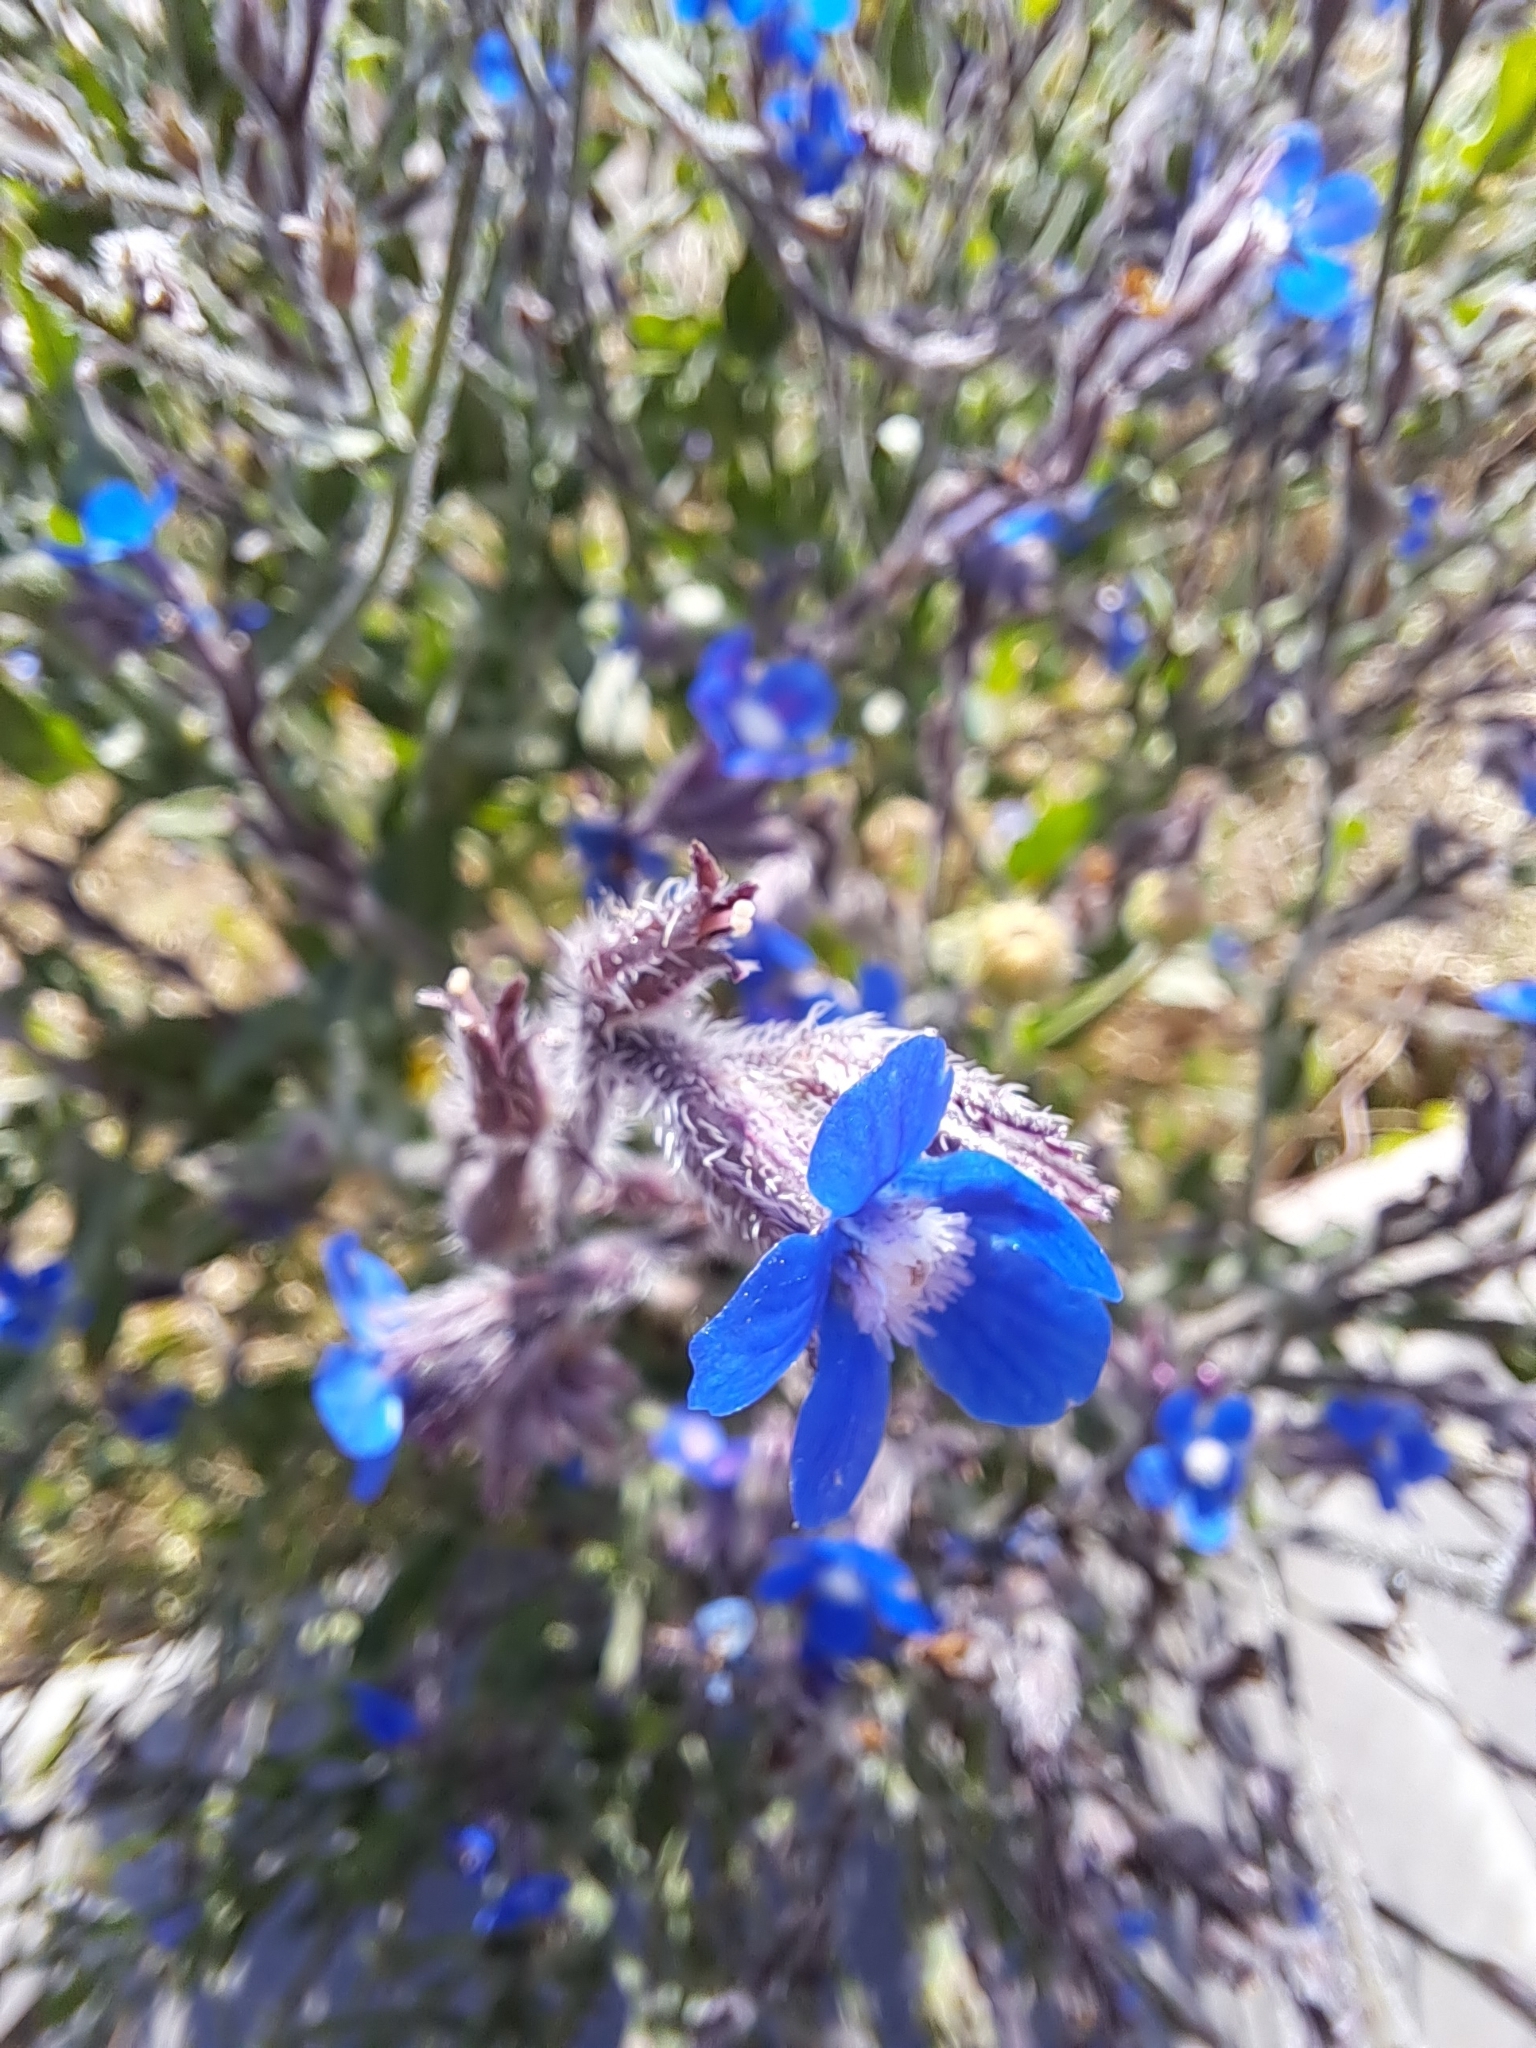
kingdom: Plantae
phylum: Tracheophyta
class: Magnoliopsida
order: Boraginales
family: Boraginaceae
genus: Anchusa
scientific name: Anchusa azurea
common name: Garden anchusa
